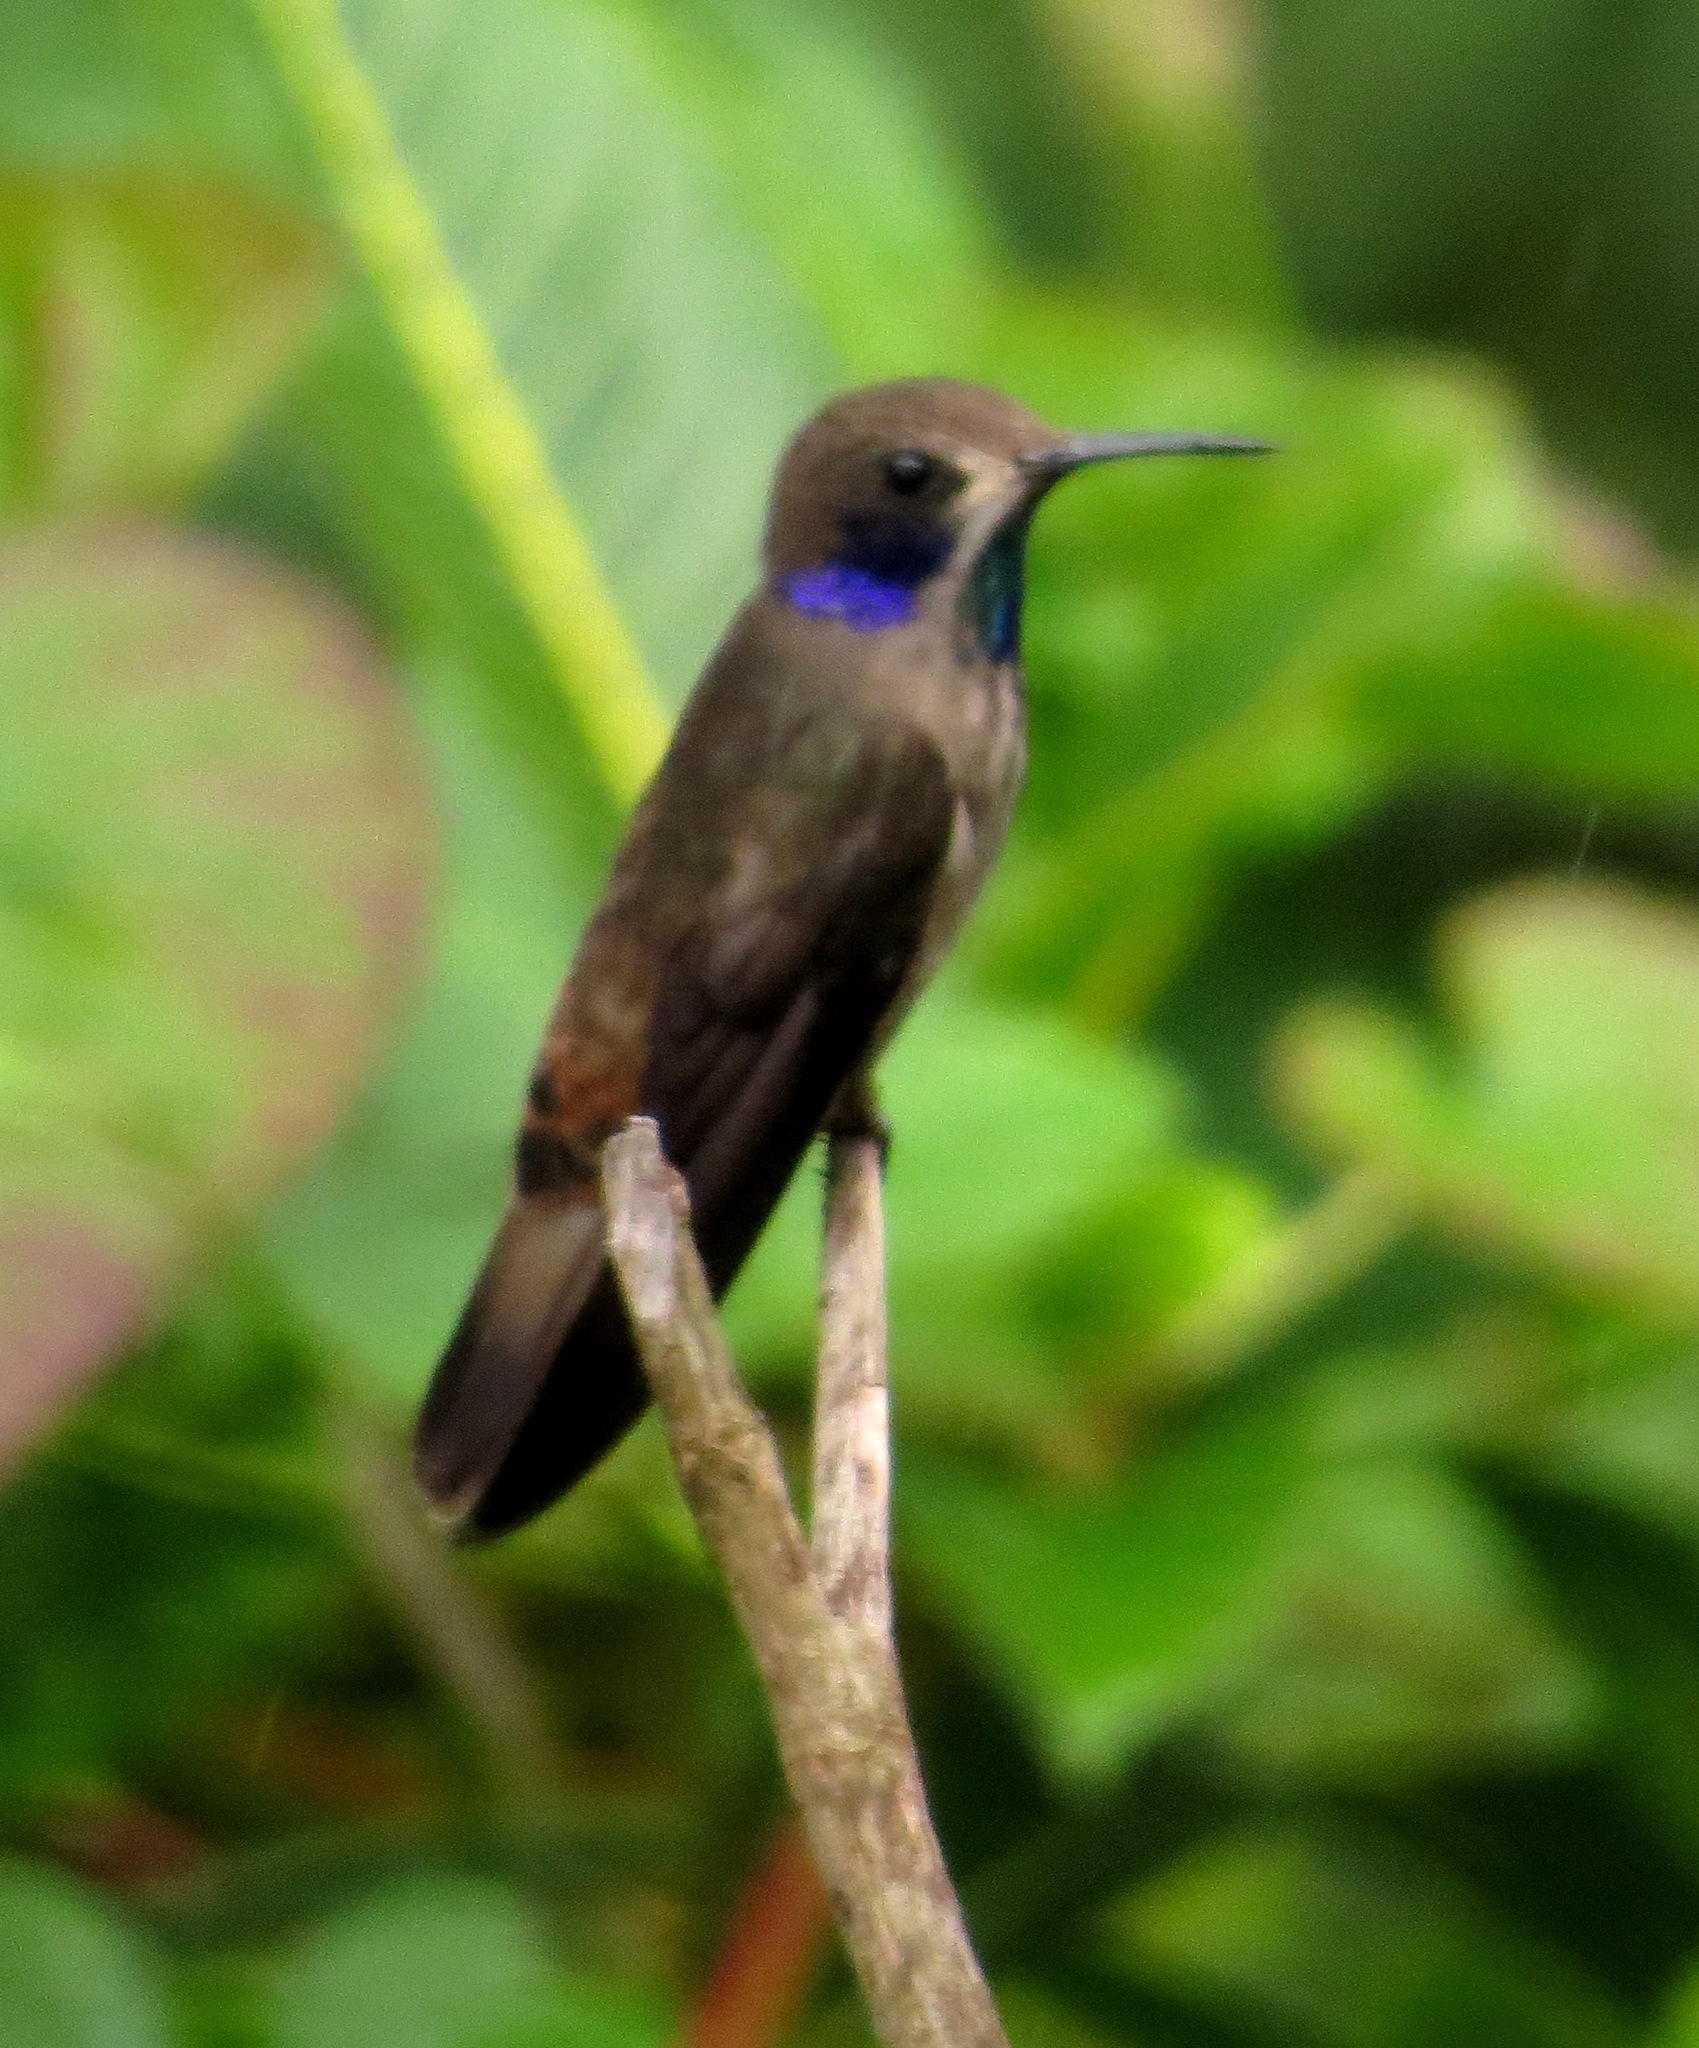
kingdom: Animalia
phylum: Chordata
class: Aves
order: Apodiformes
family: Trochilidae
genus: Colibri
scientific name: Colibri delphinae
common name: Brown violetear
